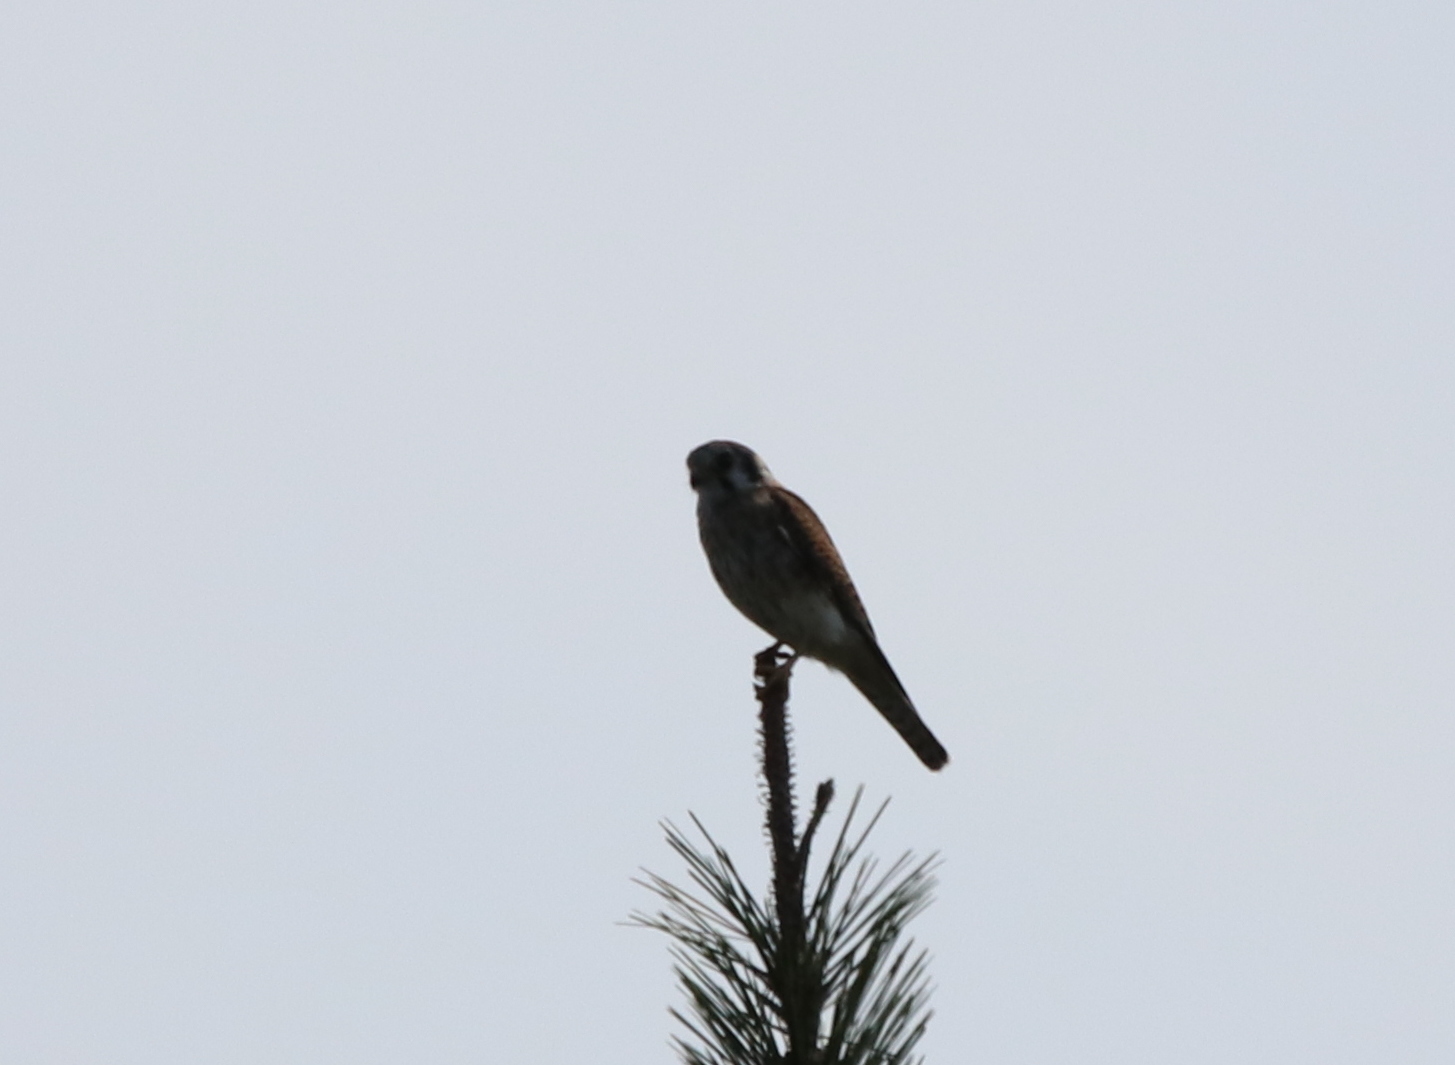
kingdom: Animalia
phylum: Chordata
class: Aves
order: Falconiformes
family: Falconidae
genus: Falco
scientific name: Falco sparverius
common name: American kestrel
